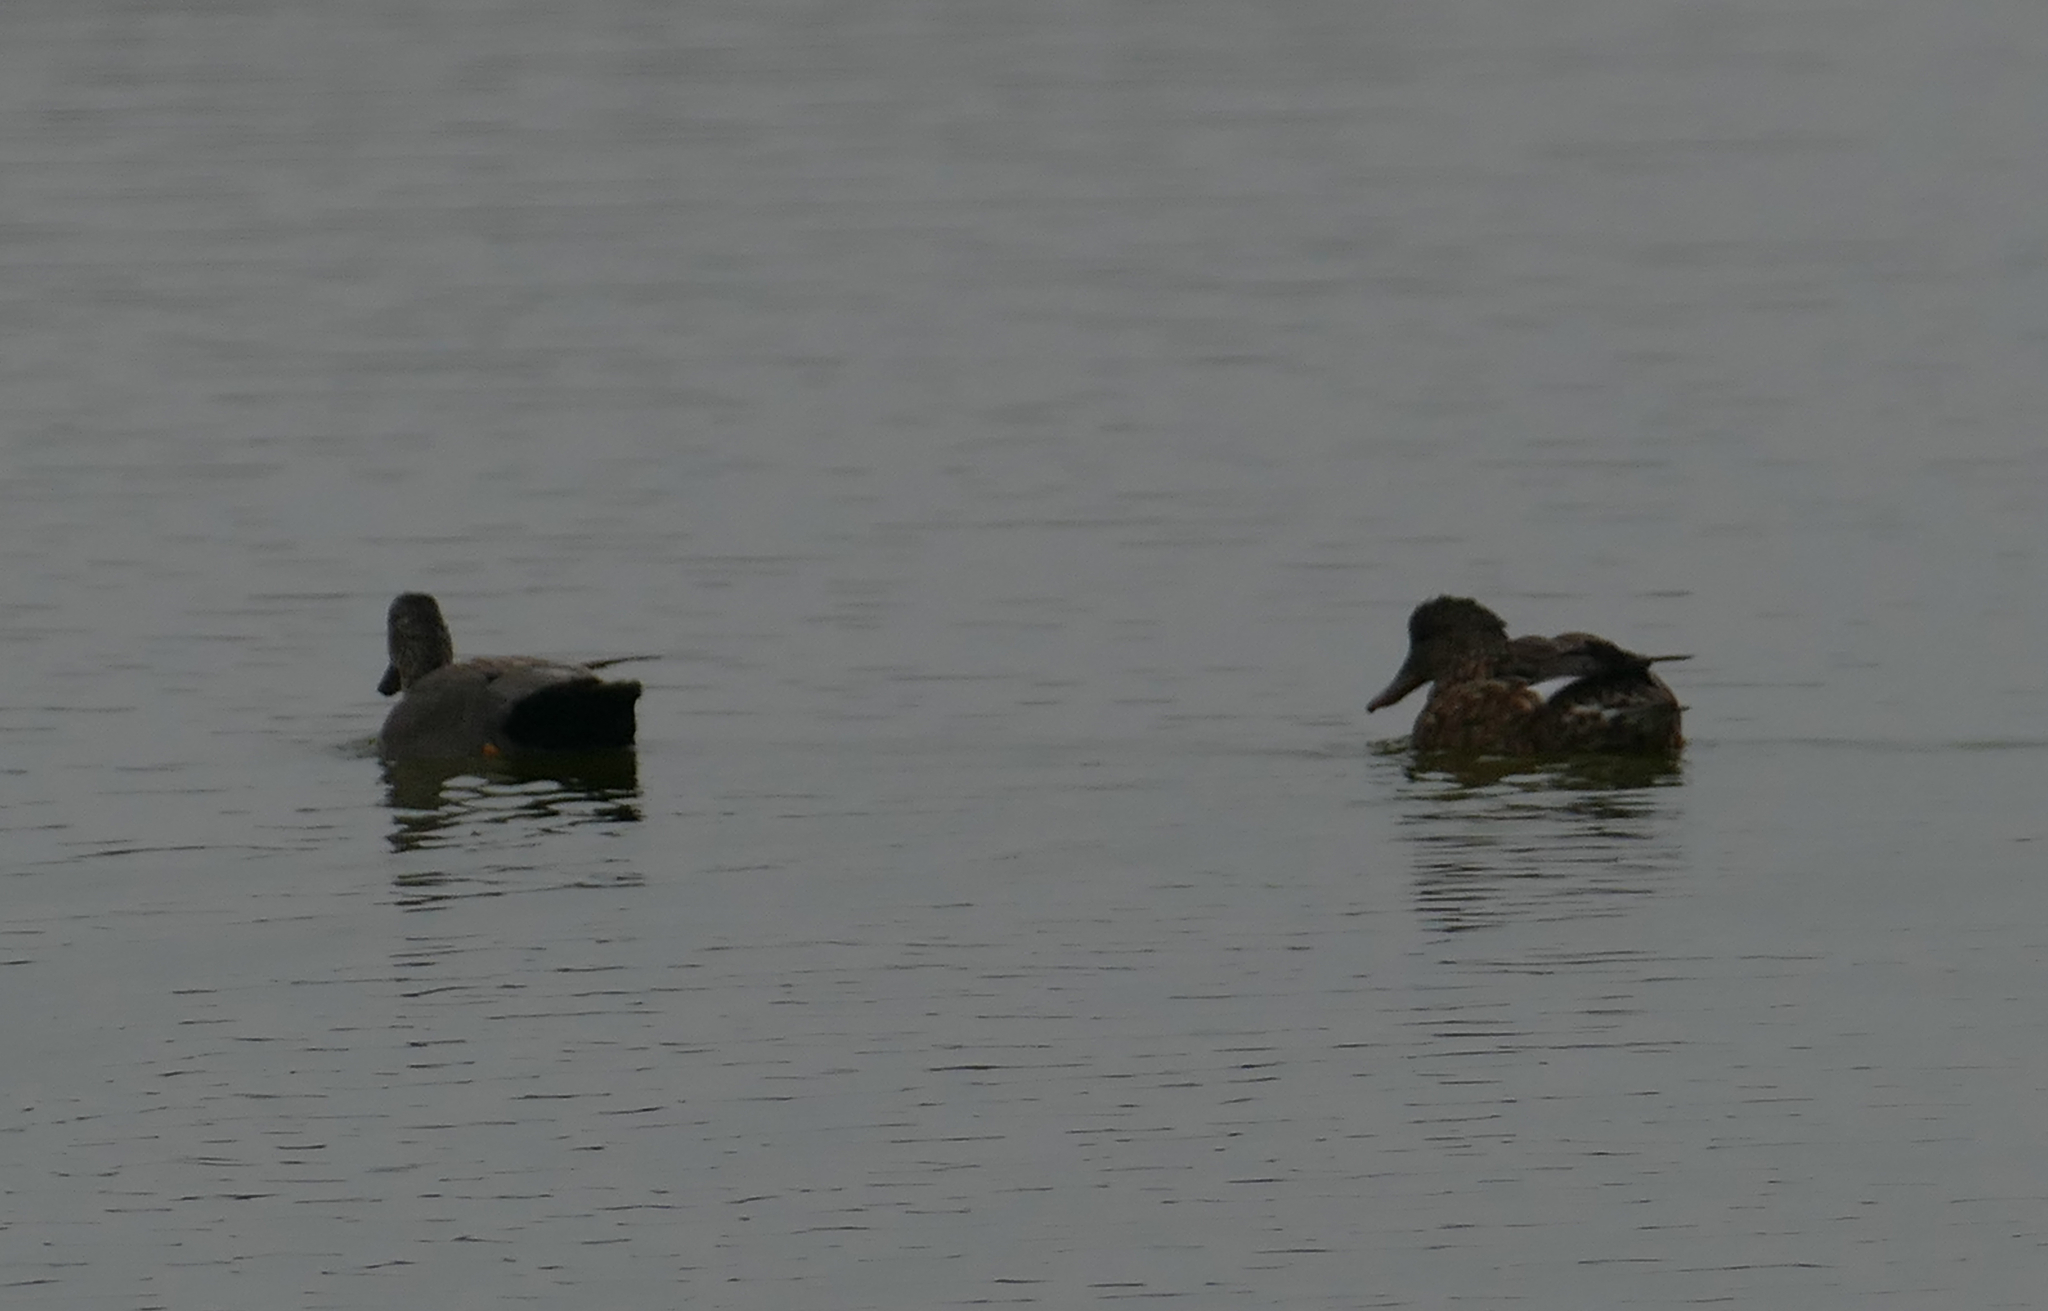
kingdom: Animalia
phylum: Chordata
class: Aves
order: Anseriformes
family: Anatidae
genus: Mareca
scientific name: Mareca strepera
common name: Gadwall
